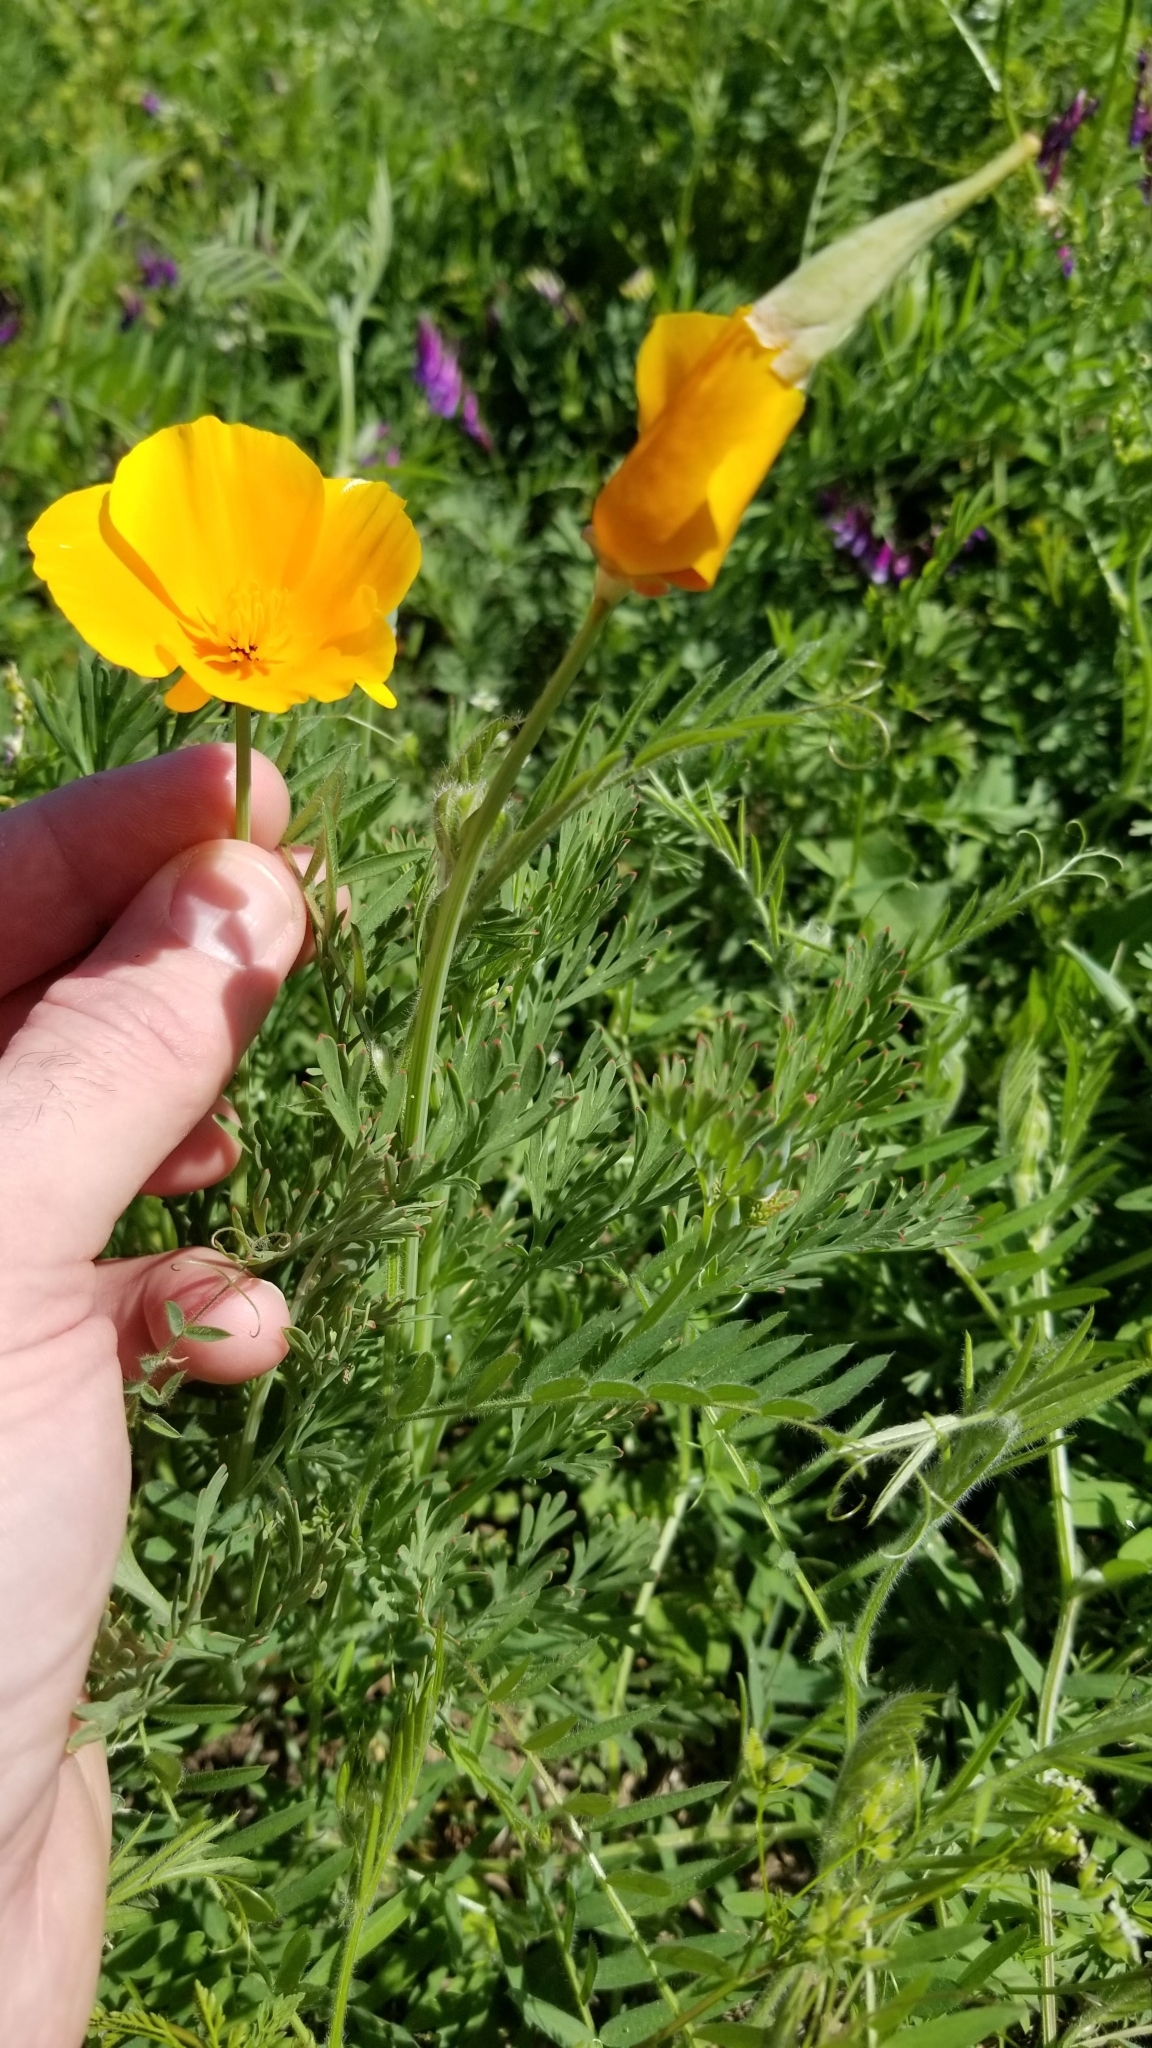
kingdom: Plantae
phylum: Tracheophyta
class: Magnoliopsida
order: Ranunculales
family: Papaveraceae
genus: Eschscholzia
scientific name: Eschscholzia californica
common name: California poppy
